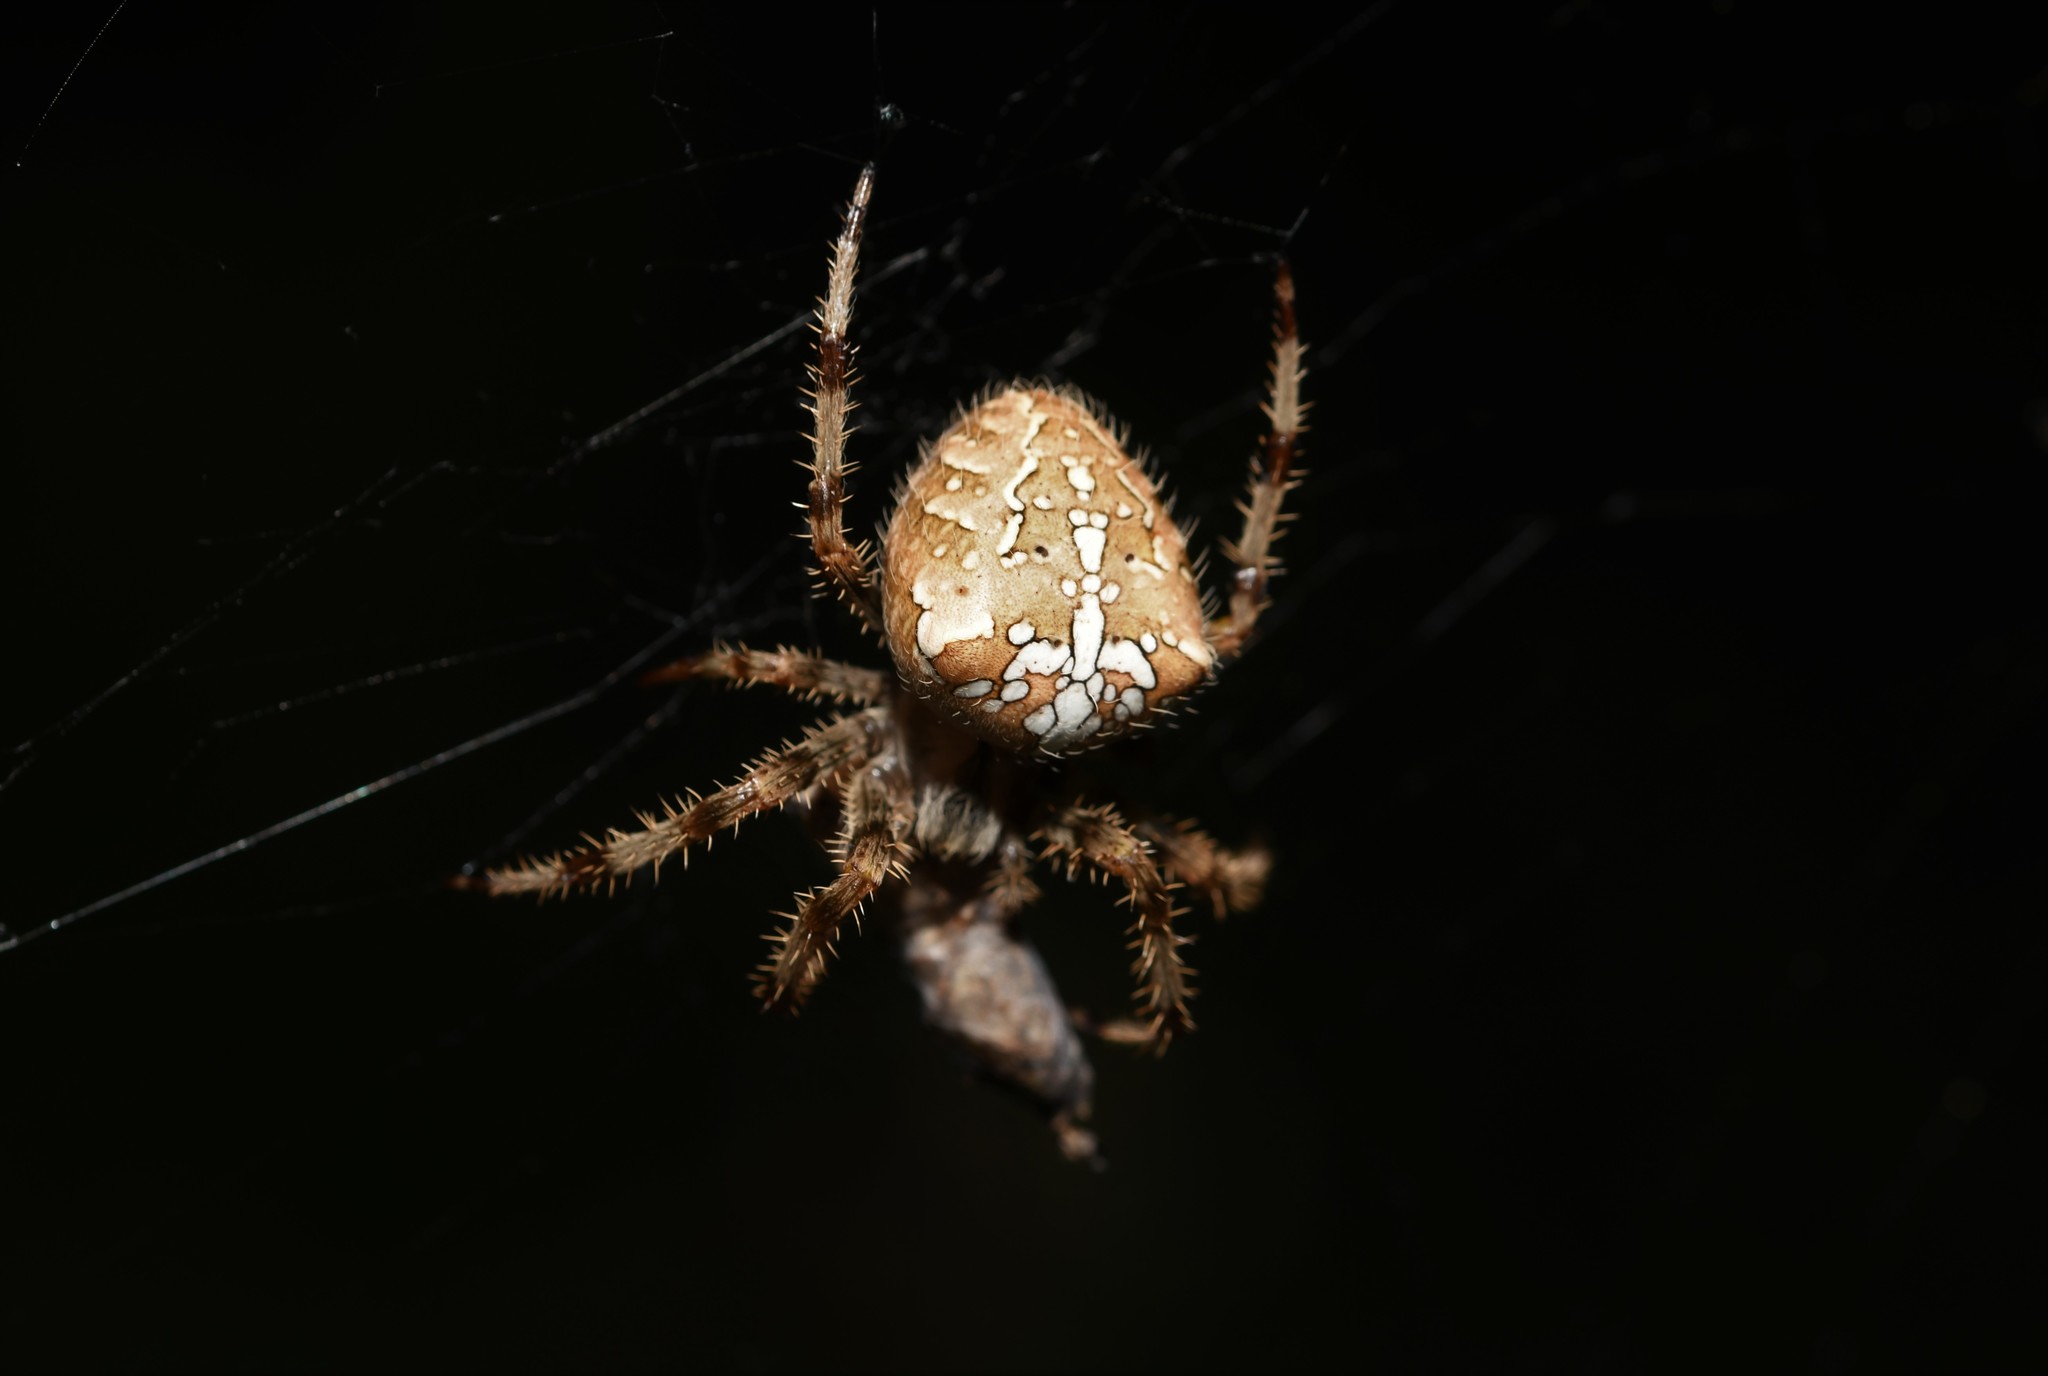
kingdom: Animalia
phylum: Arthropoda
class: Arachnida
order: Araneae
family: Araneidae
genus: Araneus
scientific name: Araneus pallidus
